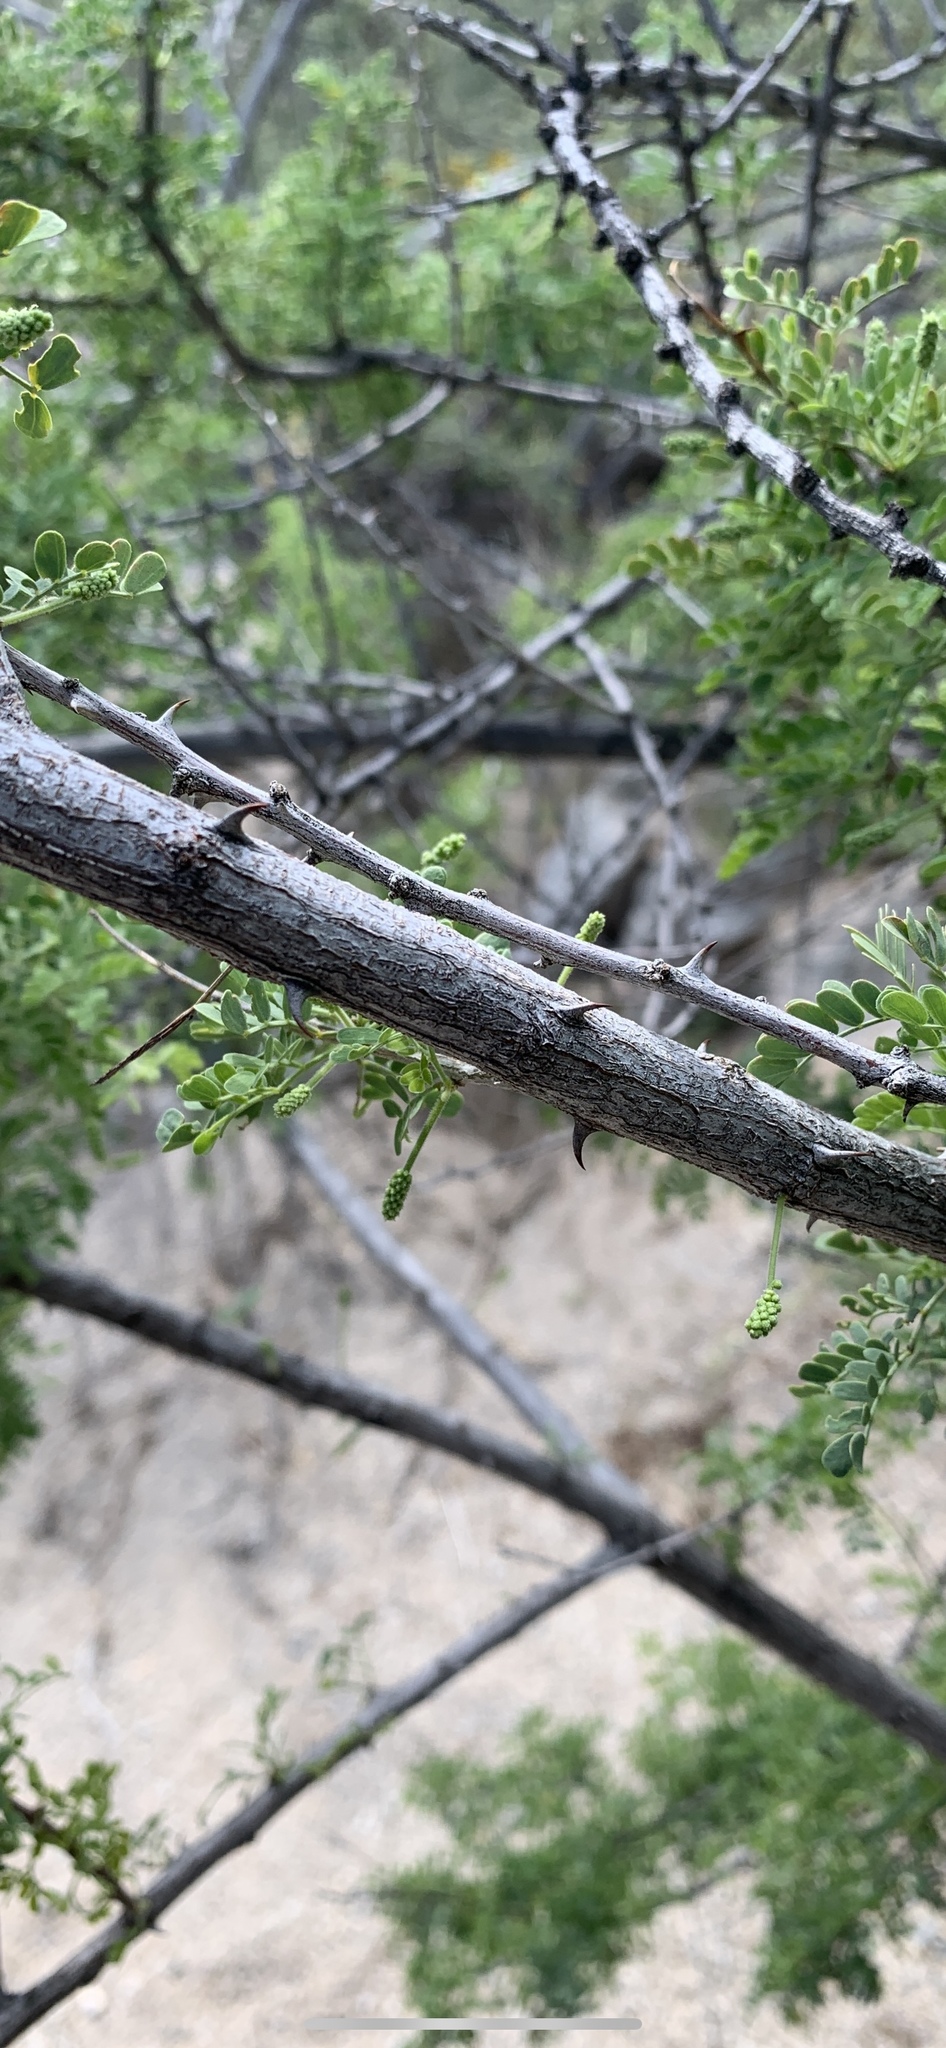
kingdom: Plantae
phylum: Tracheophyta
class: Magnoliopsida
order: Fabales
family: Fabaceae
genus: Senegalia
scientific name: Senegalia greggii
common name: Texas-mimosa
